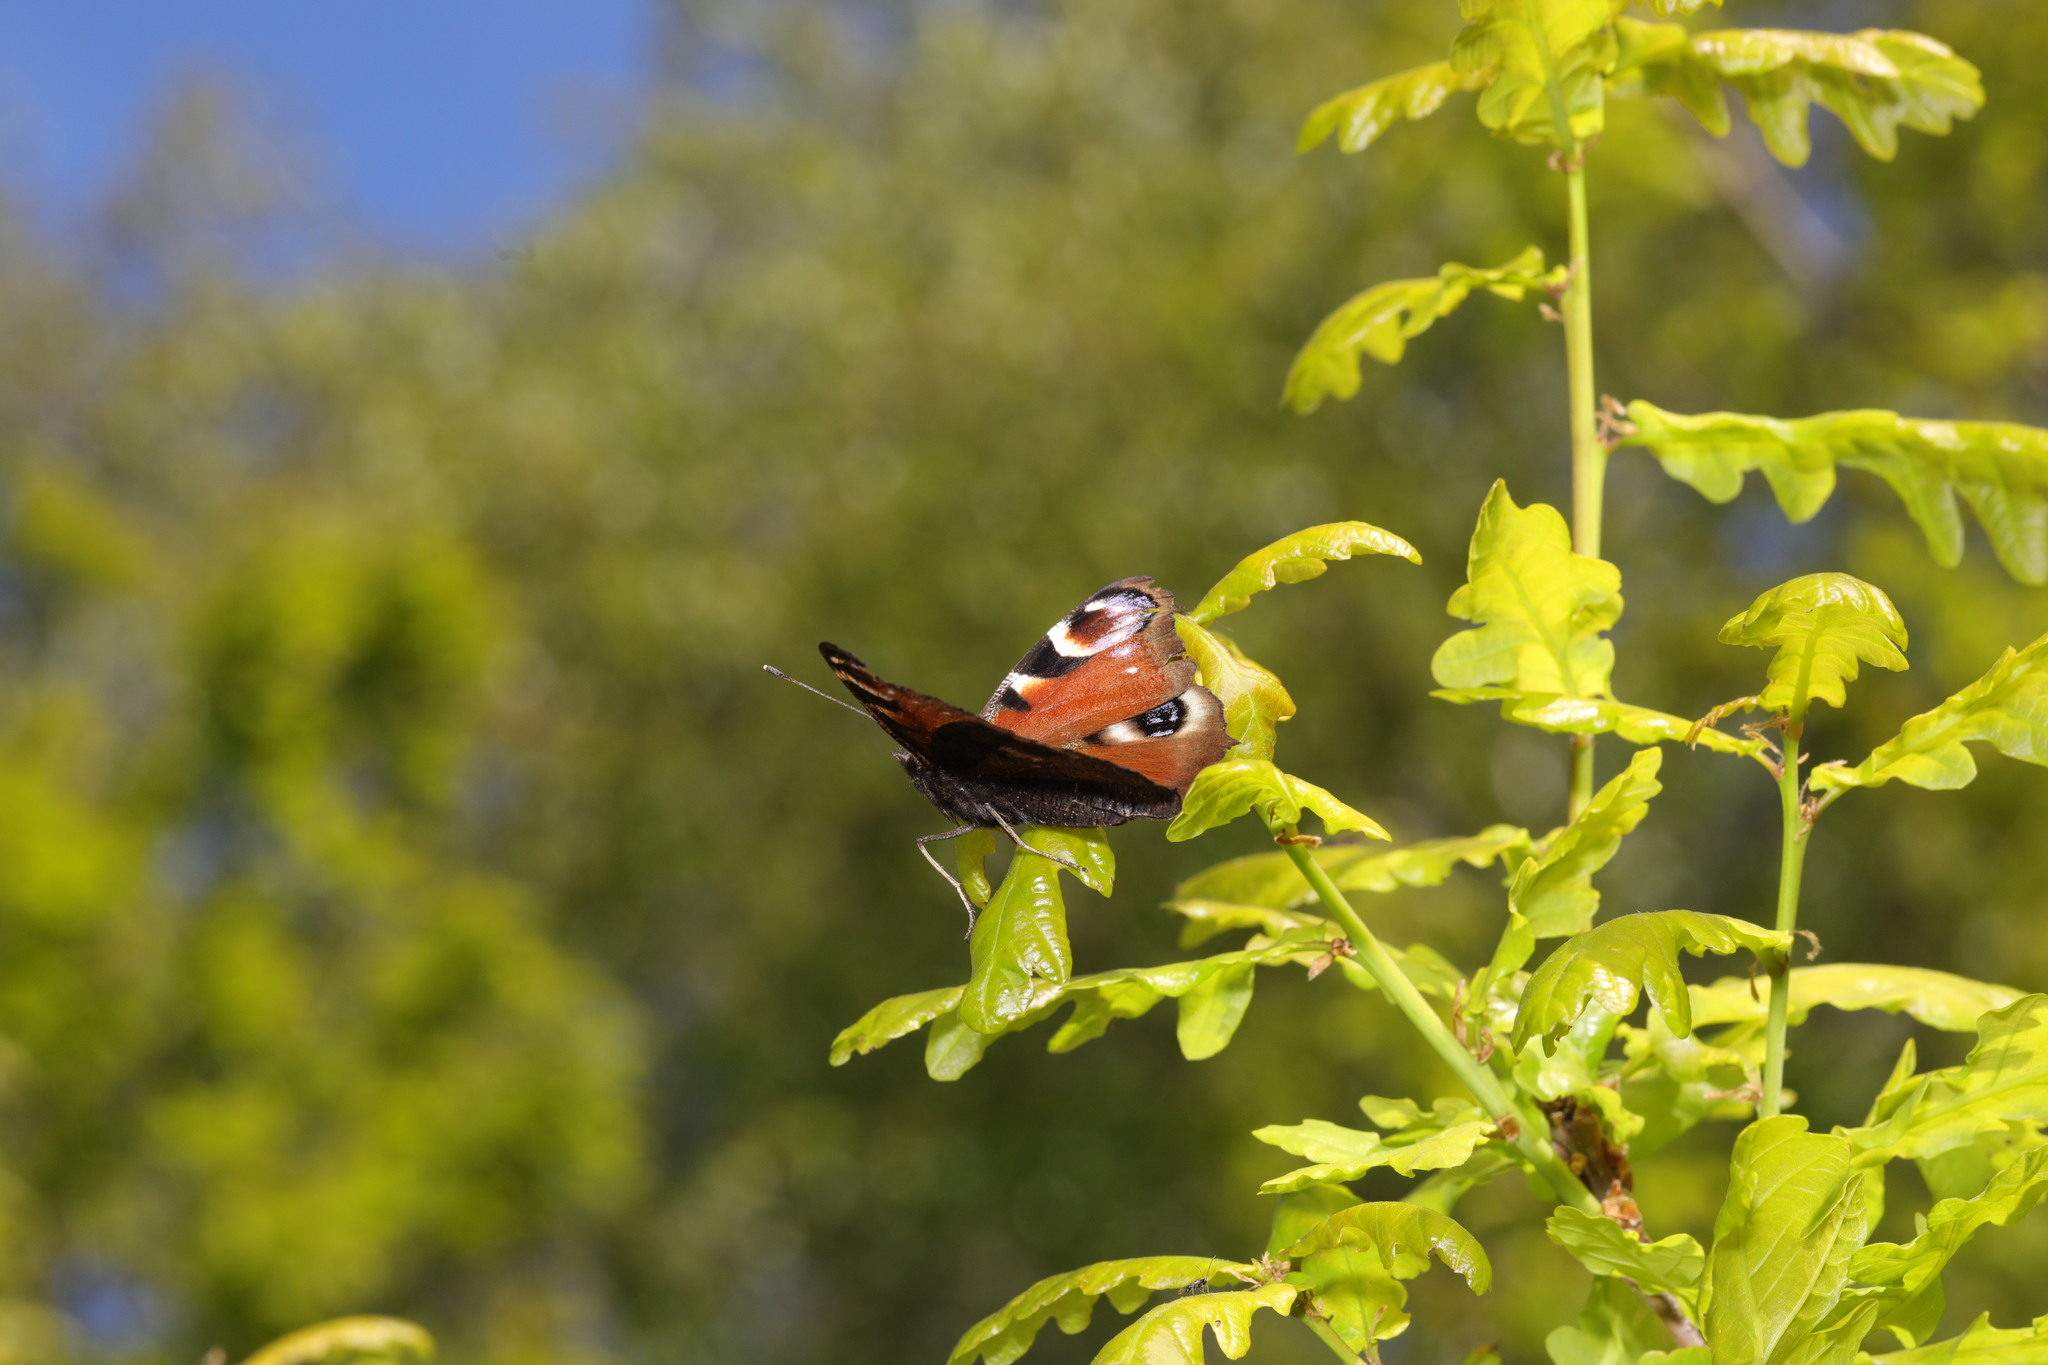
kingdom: Animalia
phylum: Arthropoda
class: Insecta
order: Lepidoptera
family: Nymphalidae
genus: Aglais
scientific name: Aglais io
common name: Peacock
